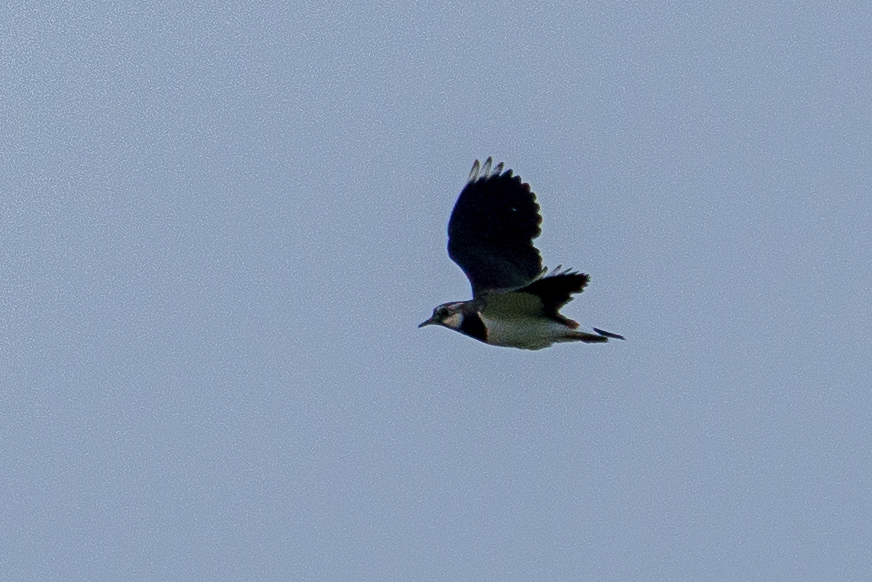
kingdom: Animalia
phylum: Chordata
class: Aves
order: Charadriiformes
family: Charadriidae
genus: Vanellus
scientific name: Vanellus vanellus
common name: Northern lapwing
